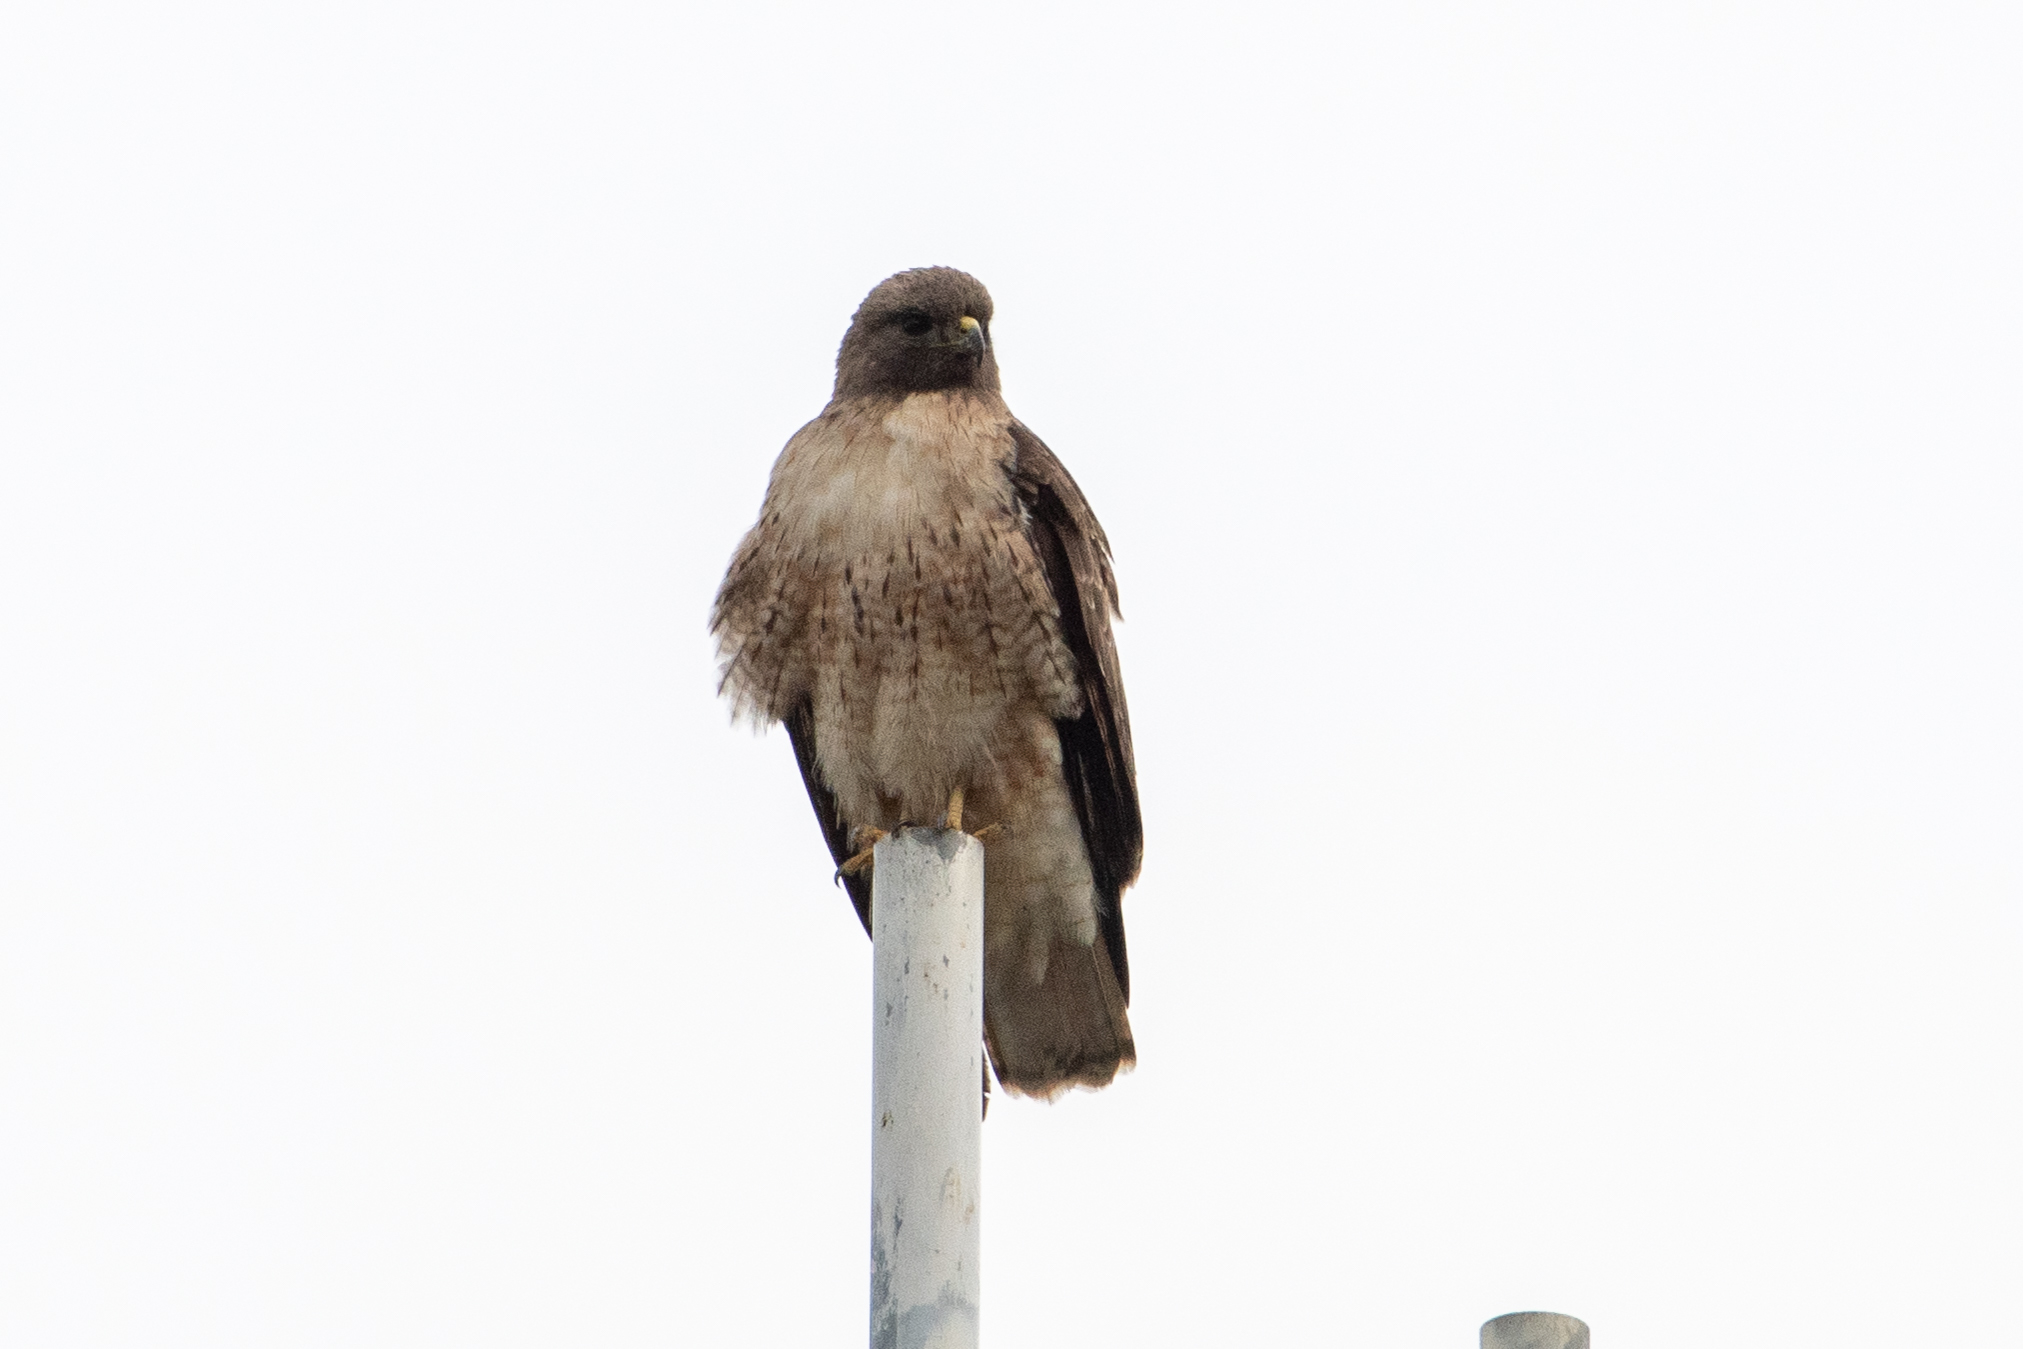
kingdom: Animalia
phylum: Chordata
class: Aves
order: Accipitriformes
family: Accipitridae
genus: Buteo
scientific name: Buteo jamaicensis
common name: Red-tailed hawk
